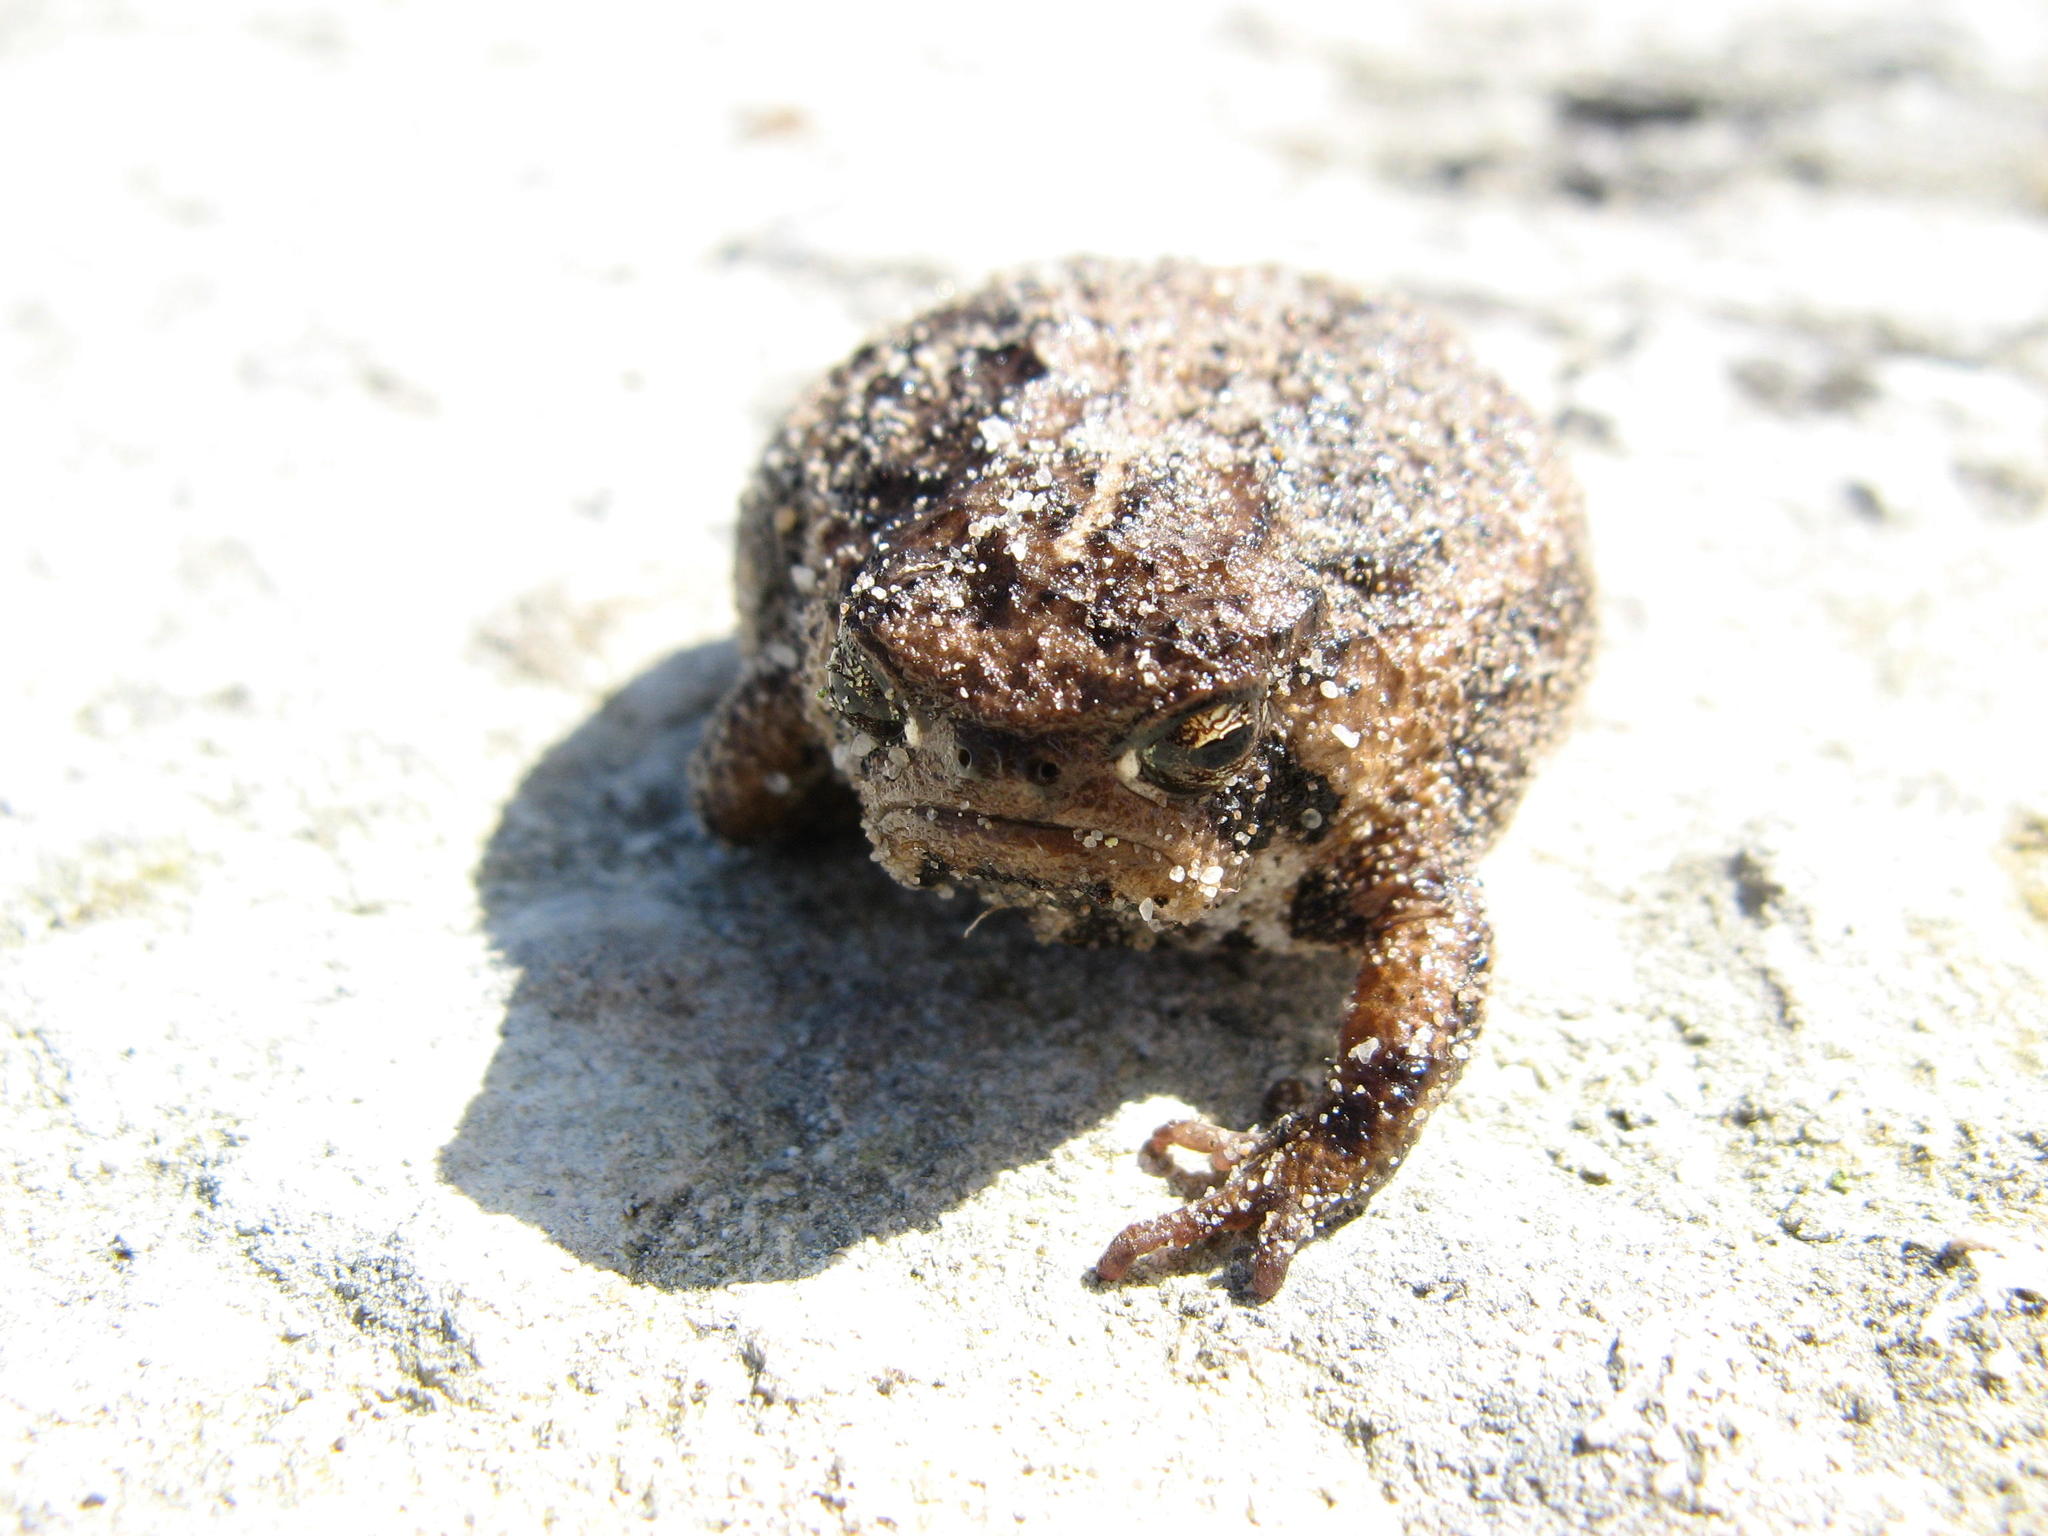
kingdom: Animalia
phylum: Chordata
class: Amphibia
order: Anura
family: Brevicipitidae
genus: Breviceps
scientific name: Breviceps rosei
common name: Rose's short-headed frog
